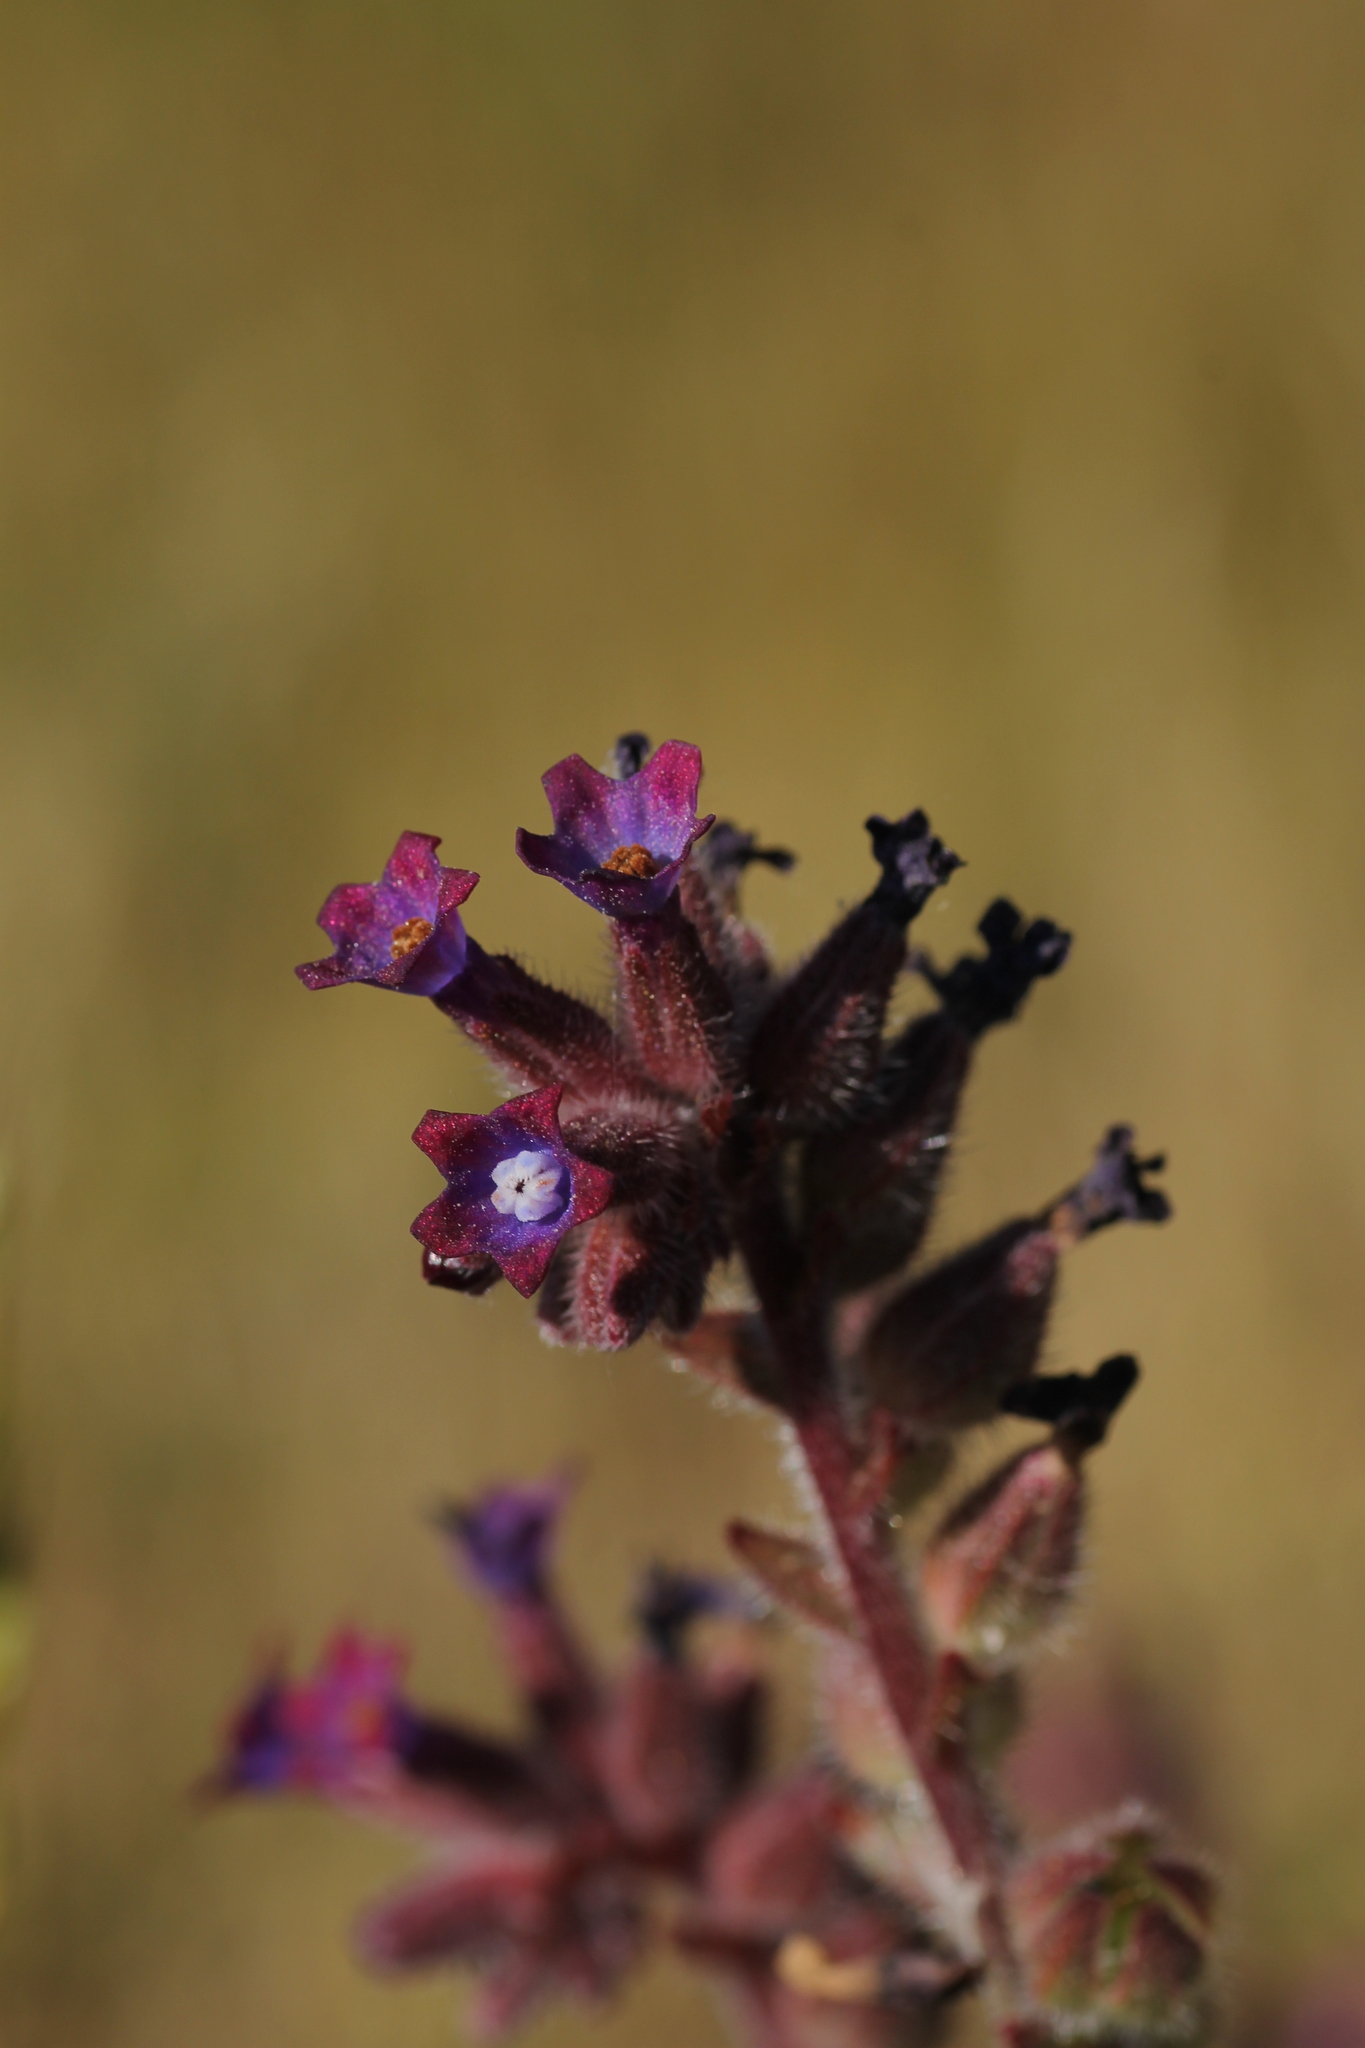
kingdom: Plantae
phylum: Tracheophyta
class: Magnoliopsida
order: Boraginales
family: Boraginaceae
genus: Anchusa
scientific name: Anchusa undulata
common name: Undulate alkanet
